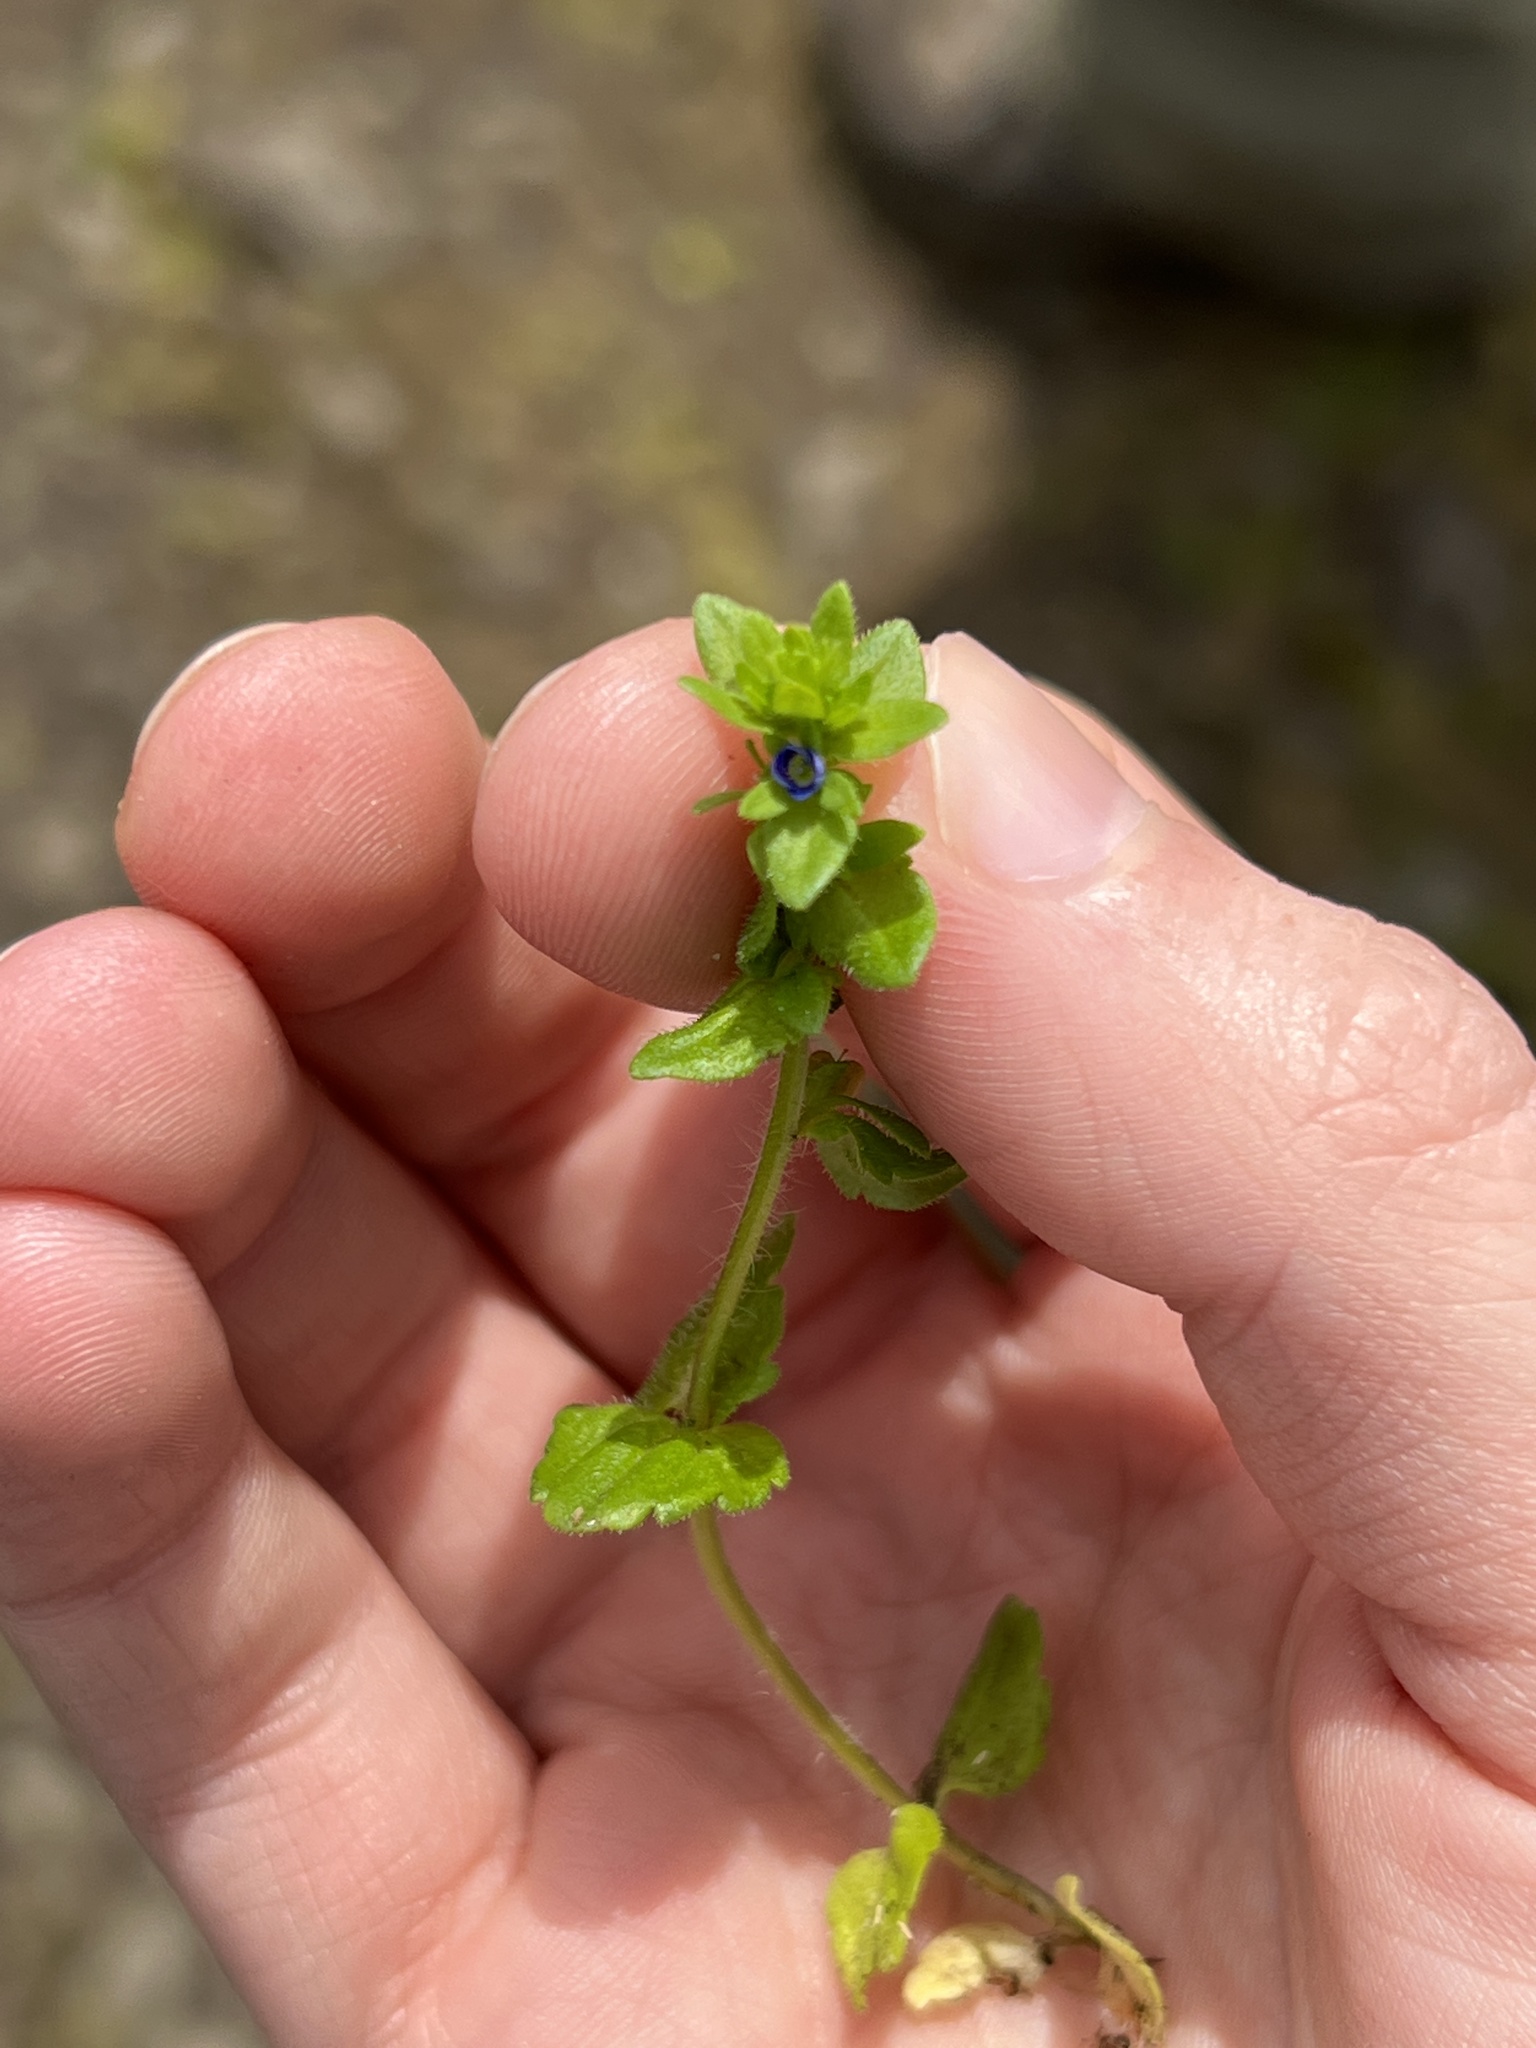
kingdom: Plantae
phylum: Tracheophyta
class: Magnoliopsida
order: Lamiales
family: Plantaginaceae
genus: Veronica
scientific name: Veronica arvensis
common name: Corn speedwell
